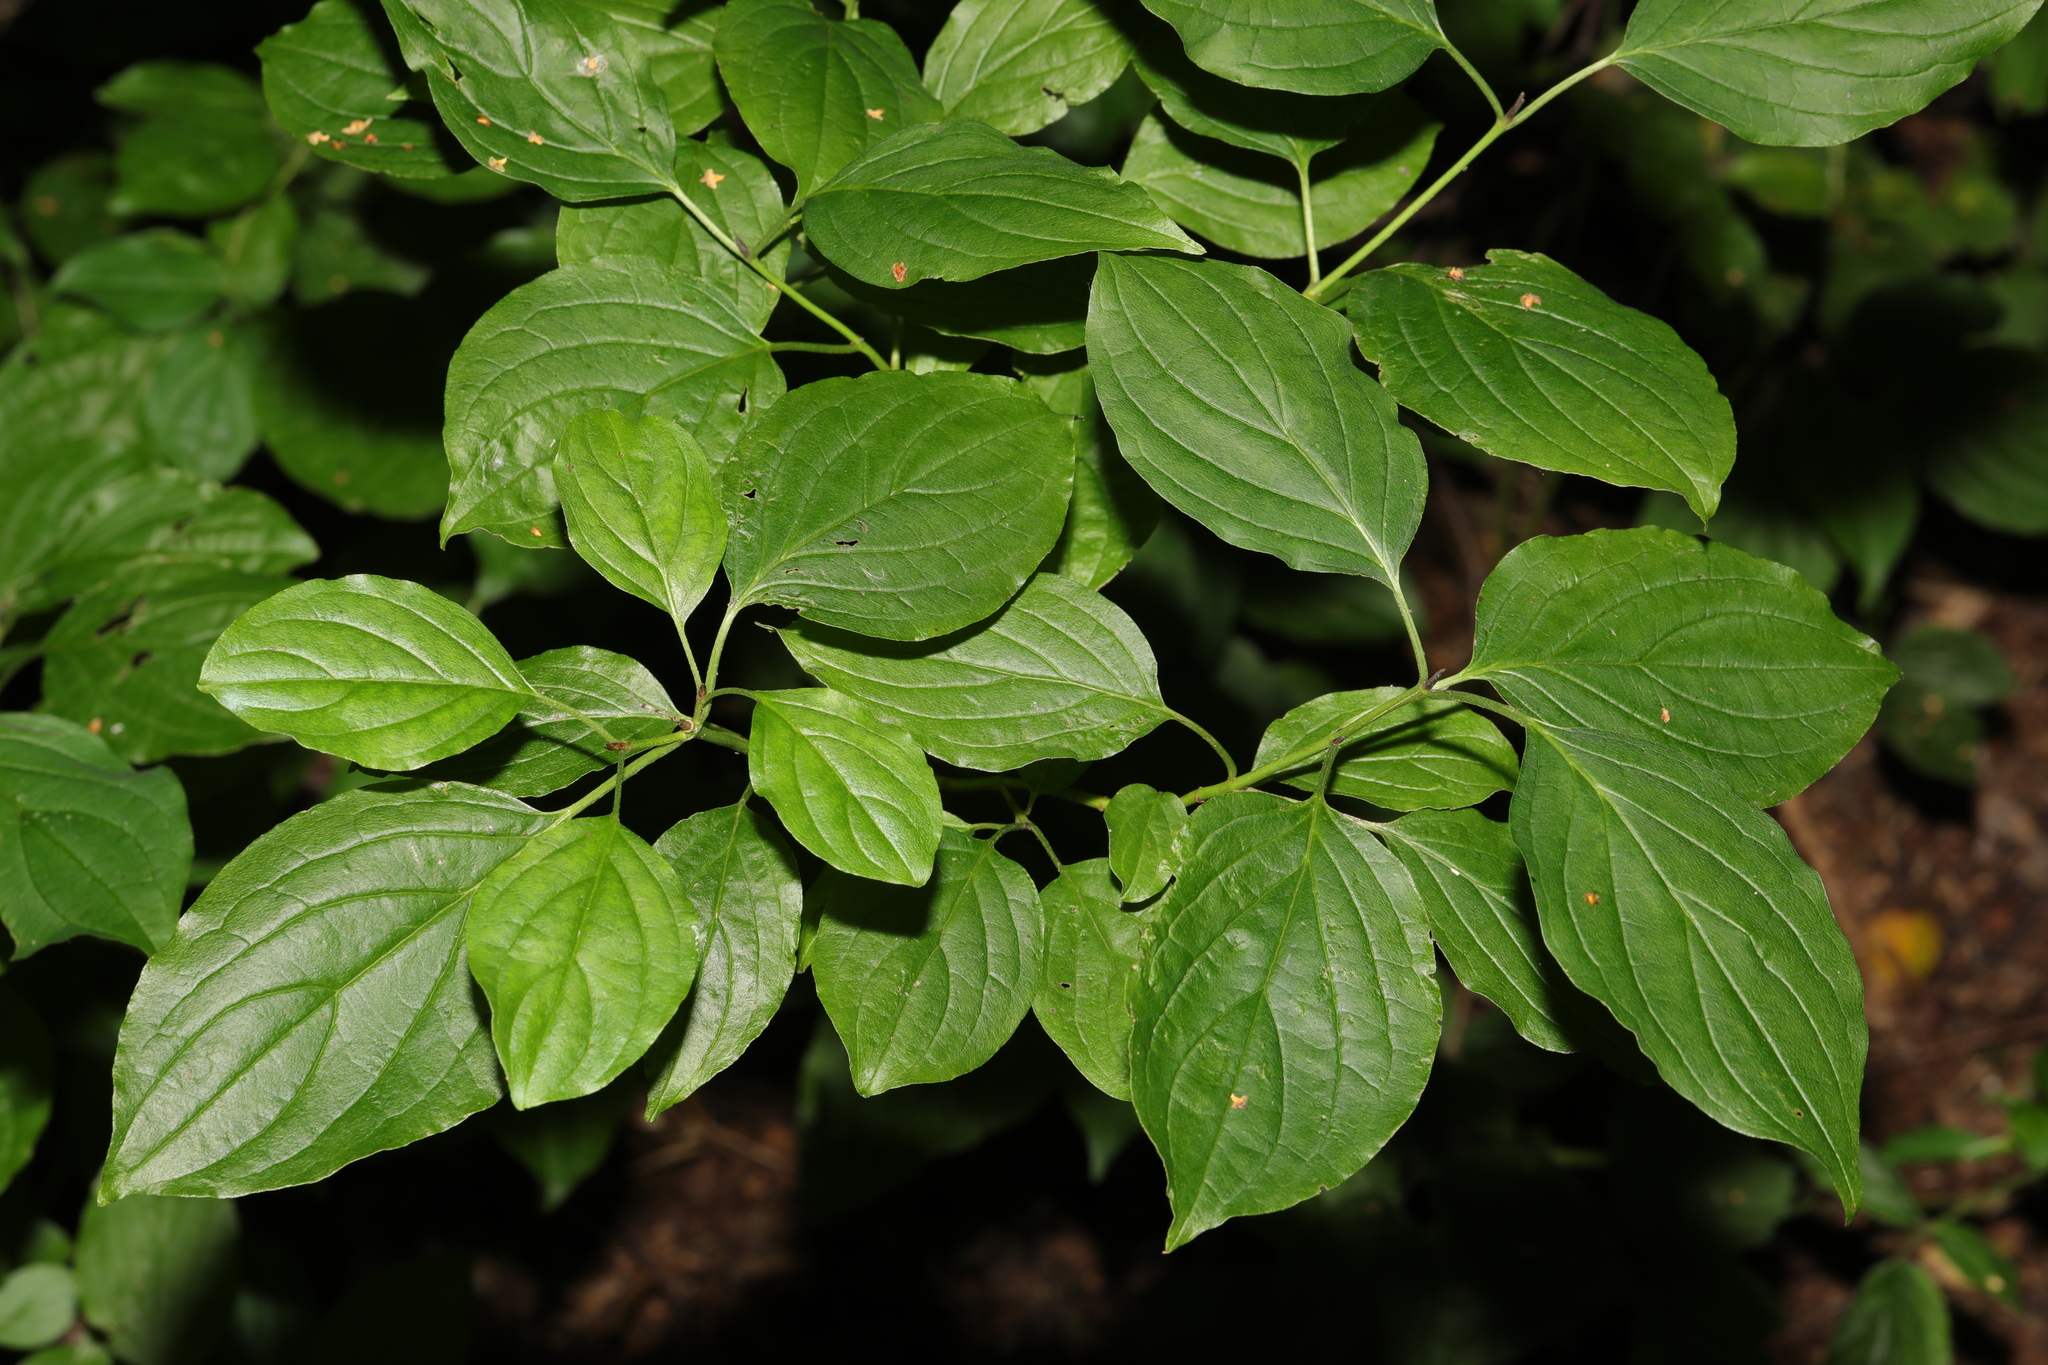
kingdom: Plantae
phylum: Tracheophyta
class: Magnoliopsida
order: Cornales
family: Cornaceae
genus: Cornus
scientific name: Cornus sanguinea
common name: Dogwood
